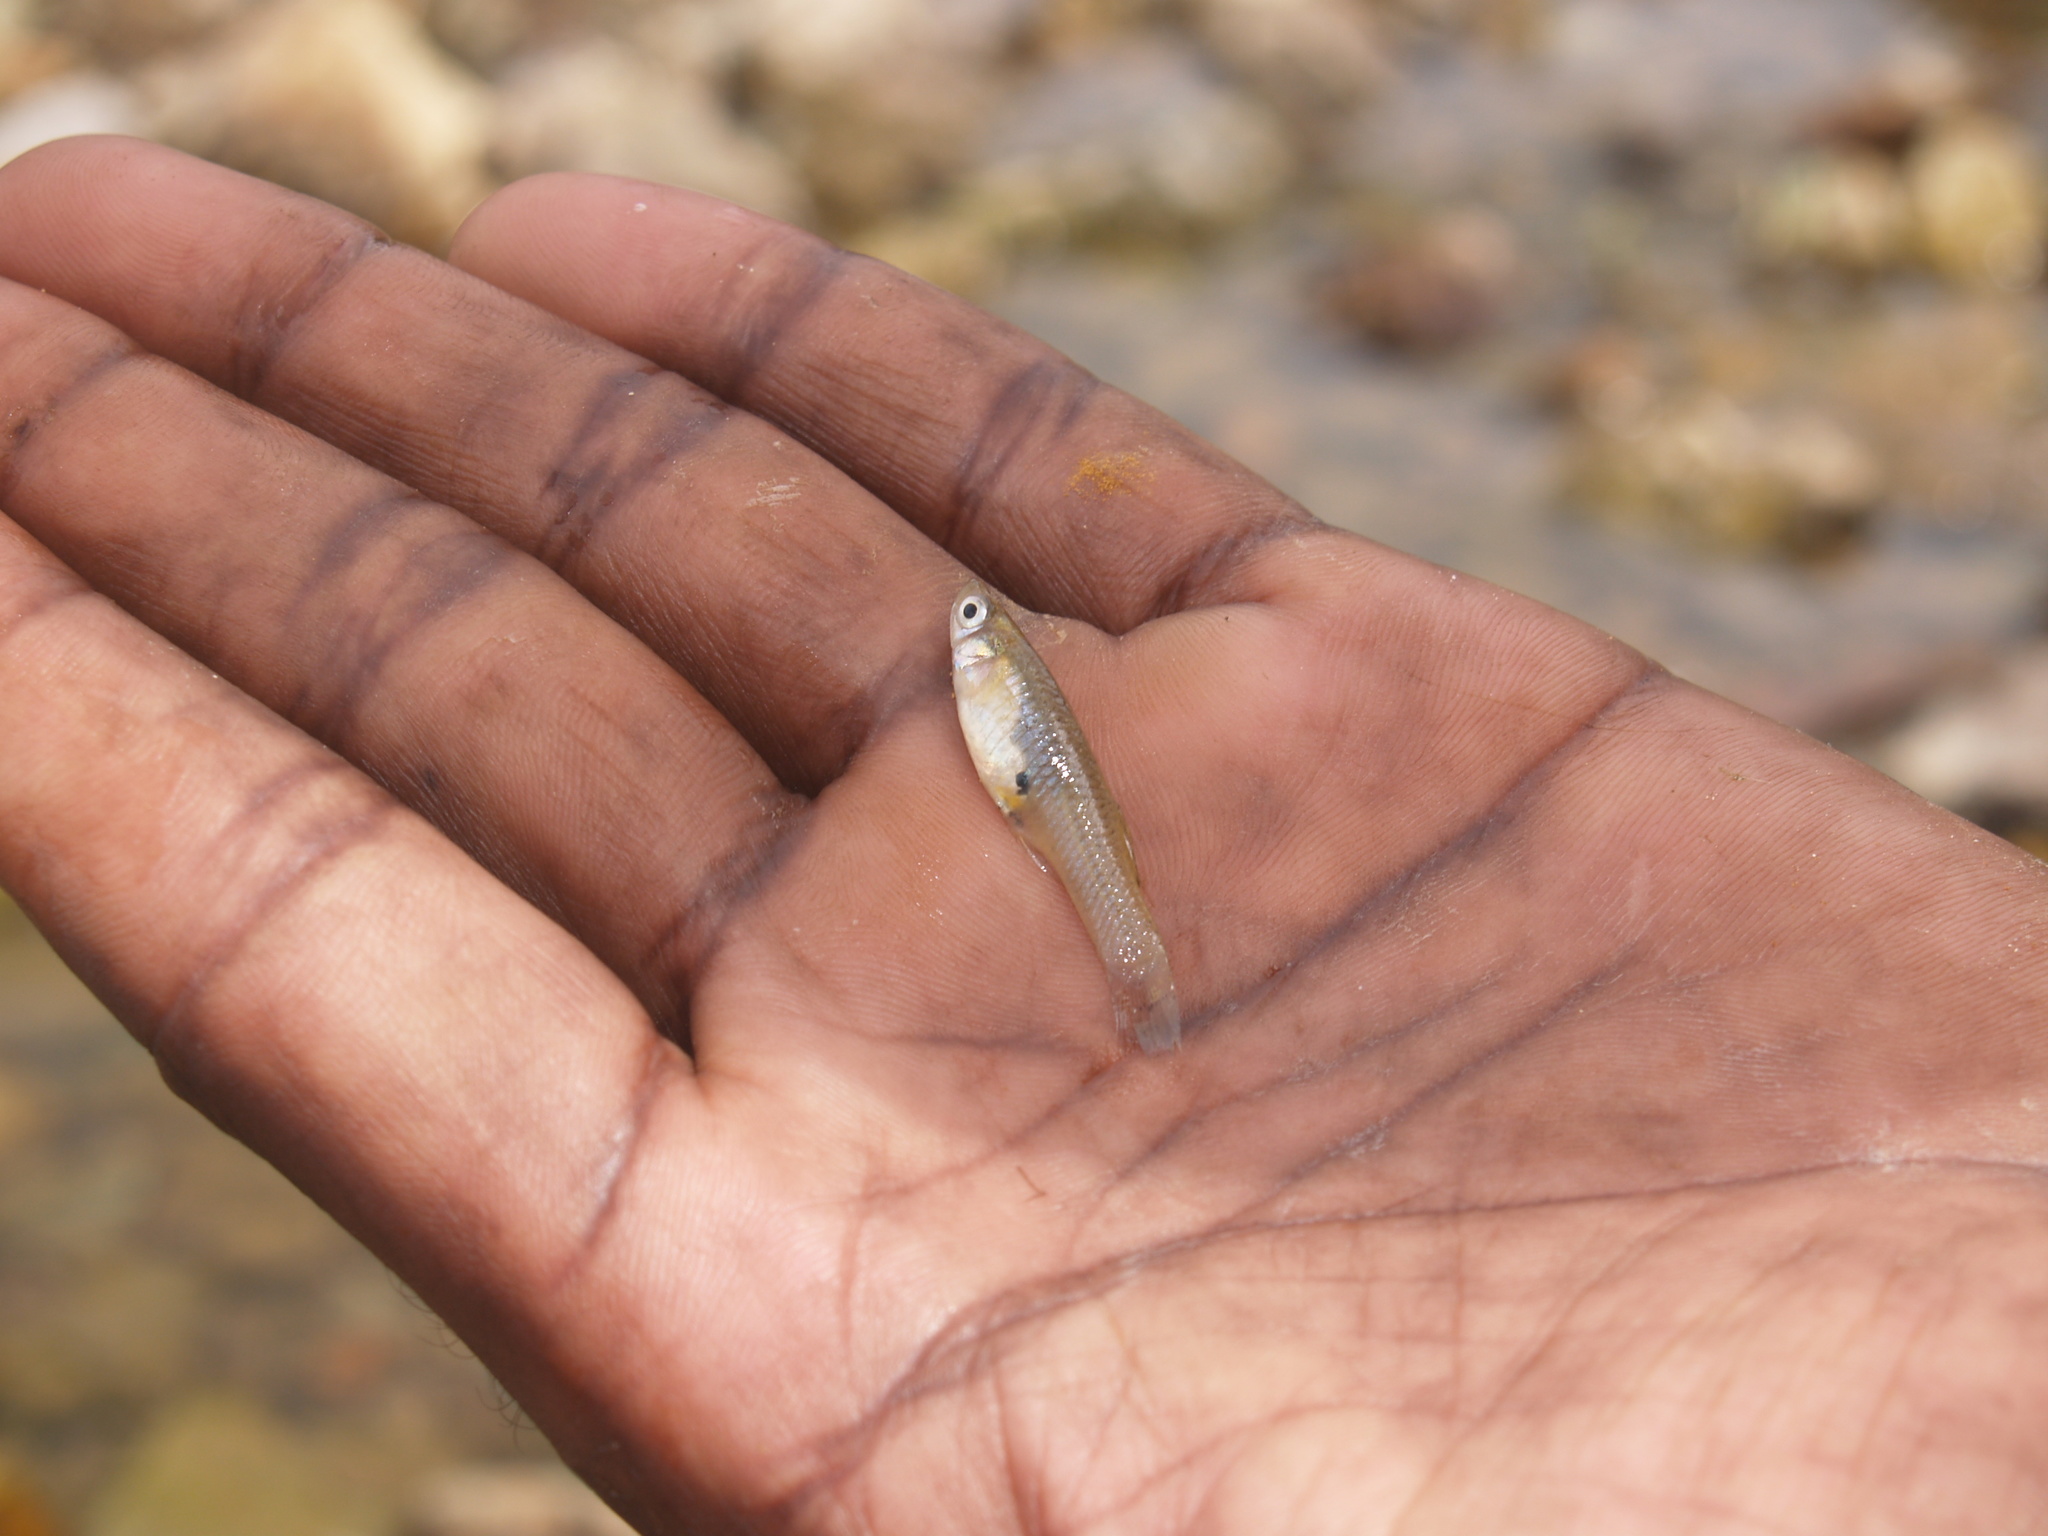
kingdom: Animalia
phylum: Chordata
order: Cyprinodontiformes
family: Poeciliidae
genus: Gambusia
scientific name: Gambusia affinis
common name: Mosquitofish
